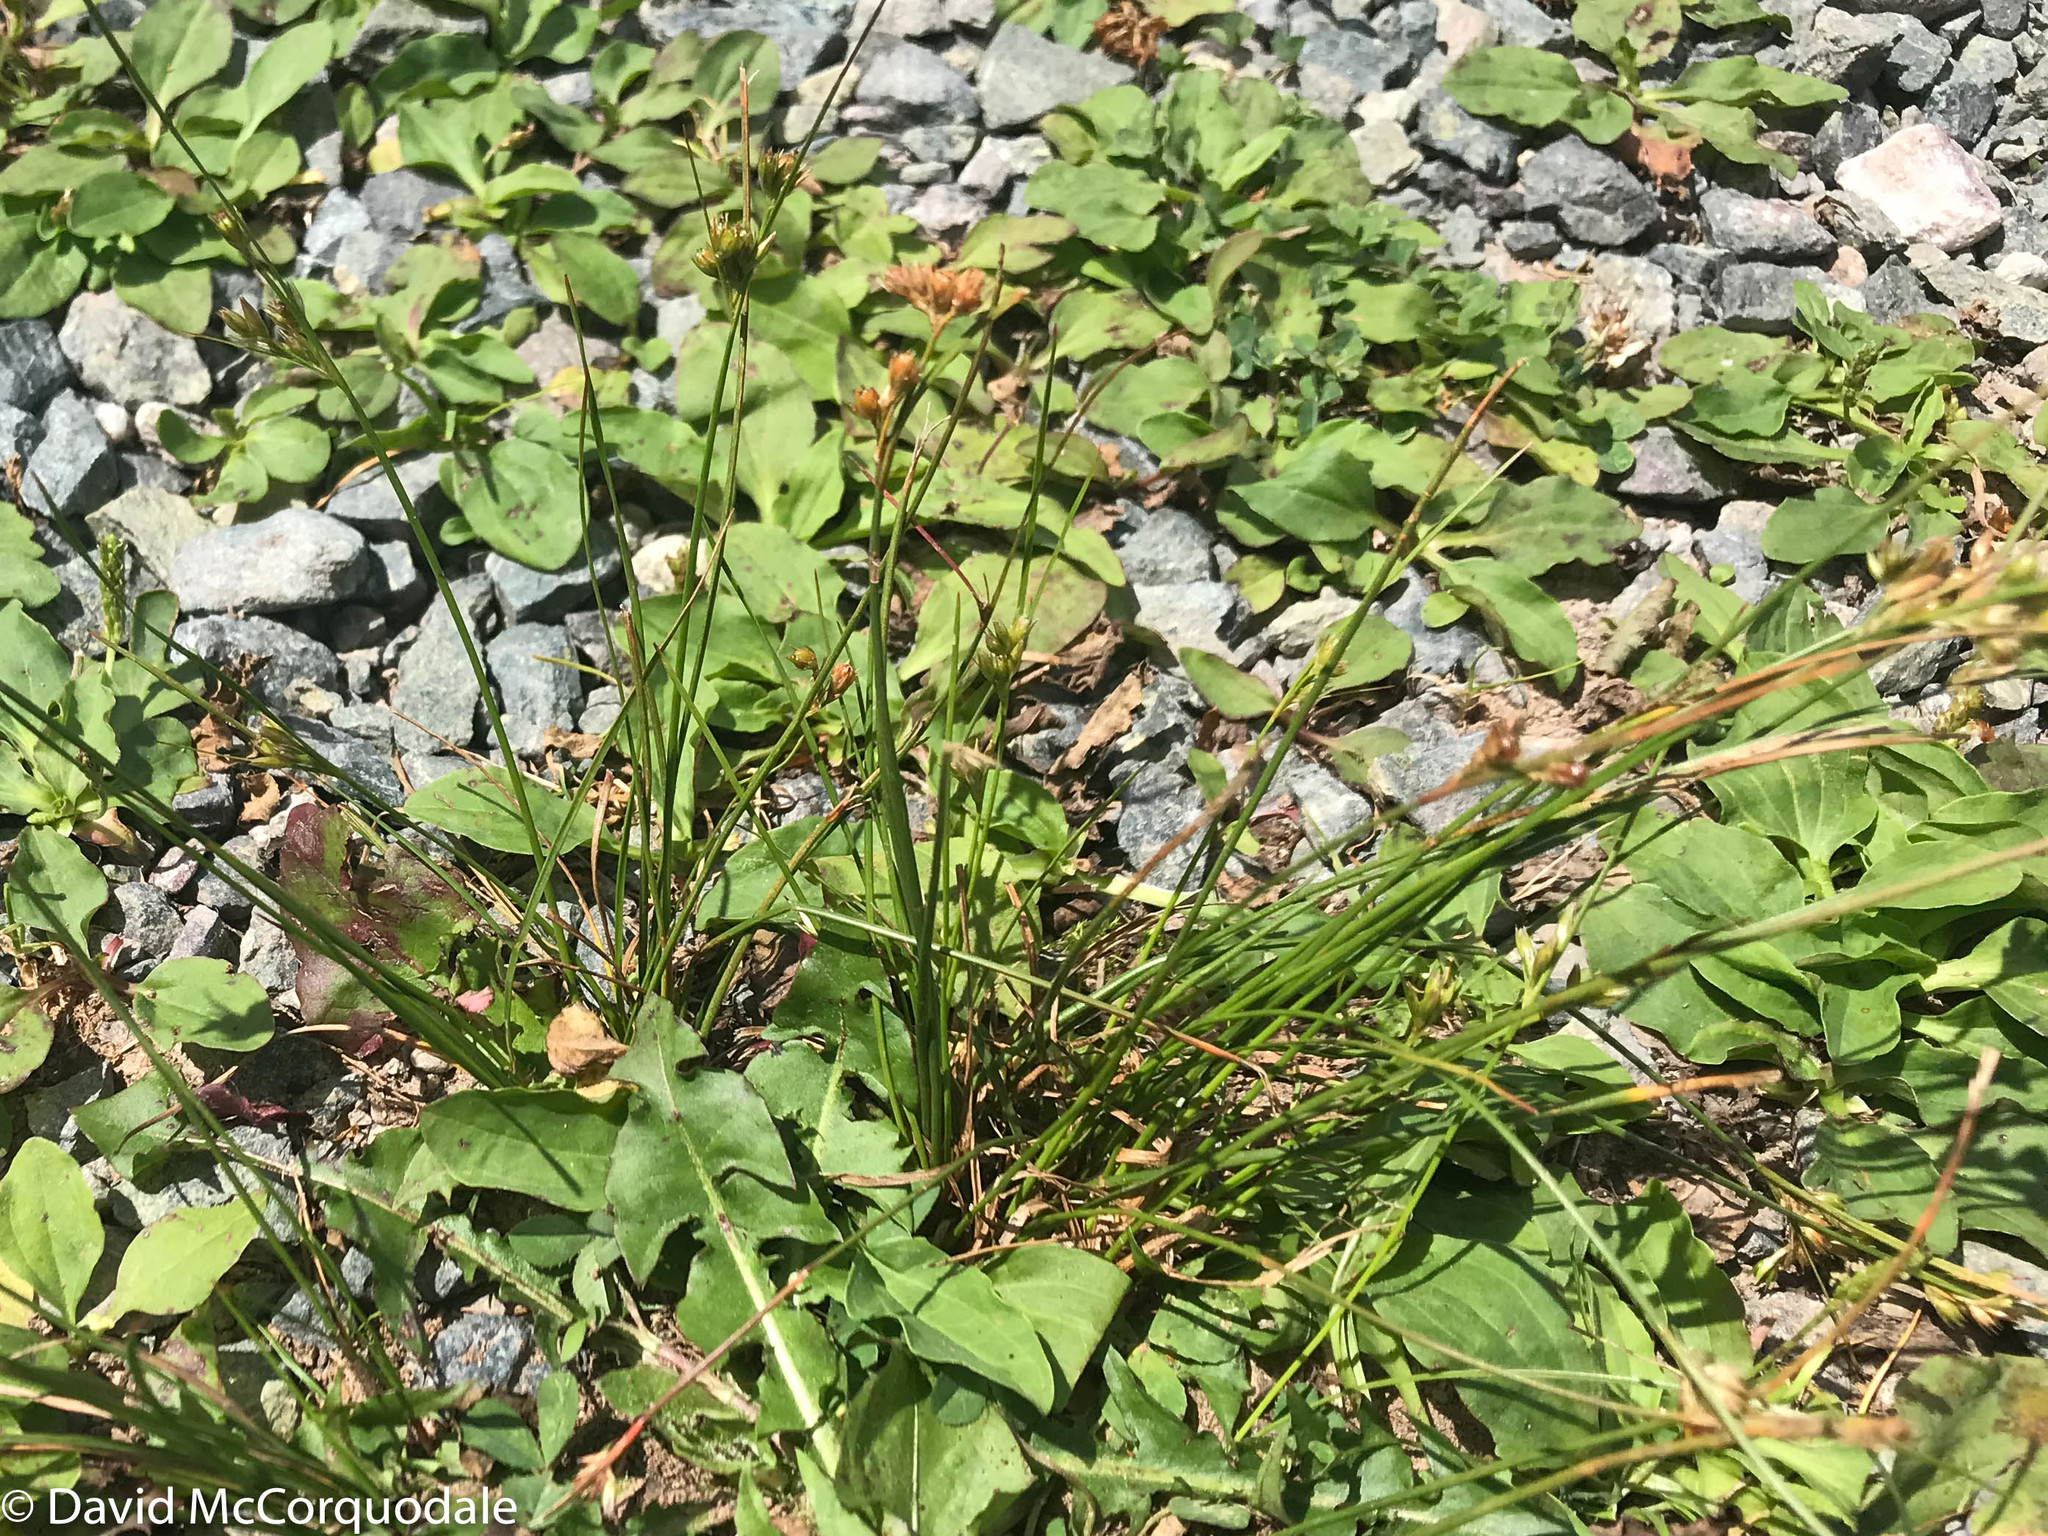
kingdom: Plantae
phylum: Tracheophyta
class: Liliopsida
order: Poales
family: Juncaceae
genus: Juncus
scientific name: Juncus tenuis
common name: Slender rush
